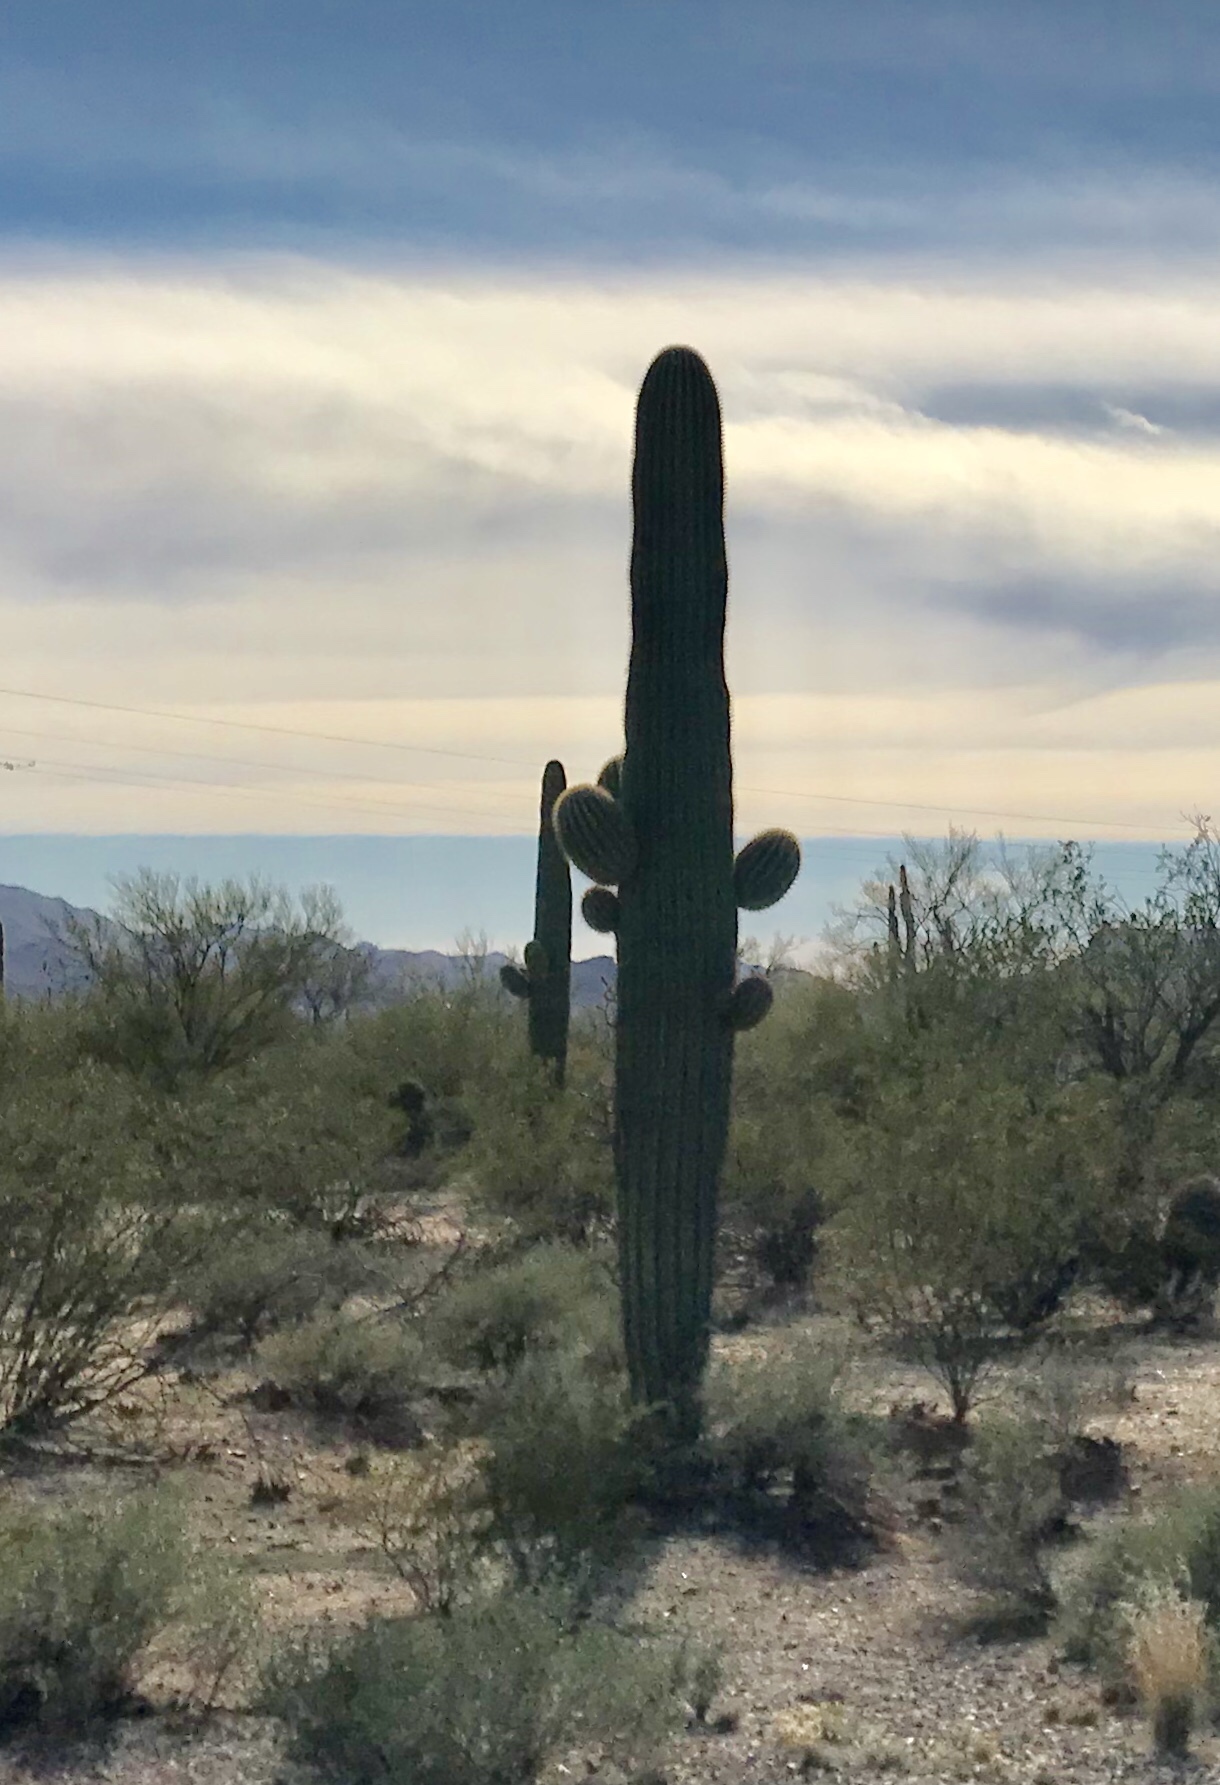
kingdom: Plantae
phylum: Tracheophyta
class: Magnoliopsida
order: Caryophyllales
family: Cactaceae
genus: Carnegiea
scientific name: Carnegiea gigantea
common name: Saguaro
